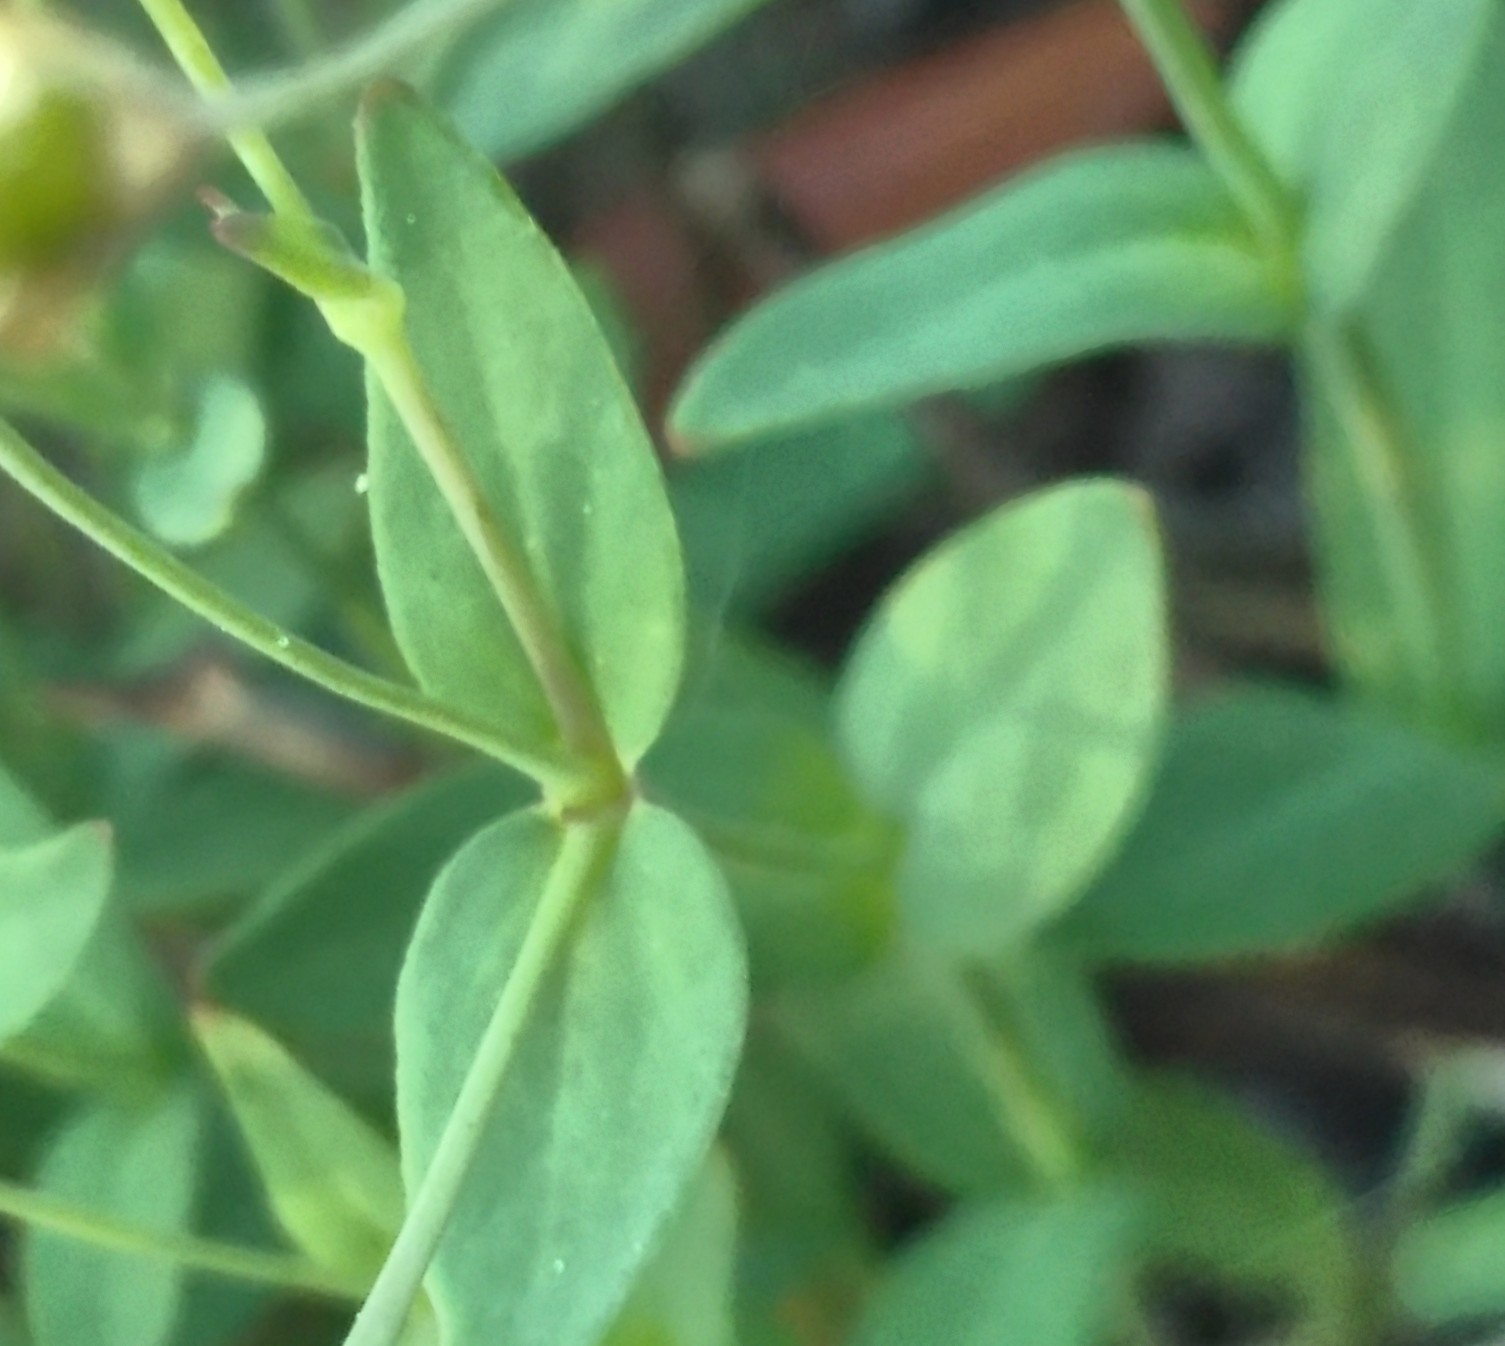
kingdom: Plantae
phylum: Tracheophyta
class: Magnoliopsida
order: Caryophyllales
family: Caryophyllaceae
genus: Atocion
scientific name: Atocion rupestre
